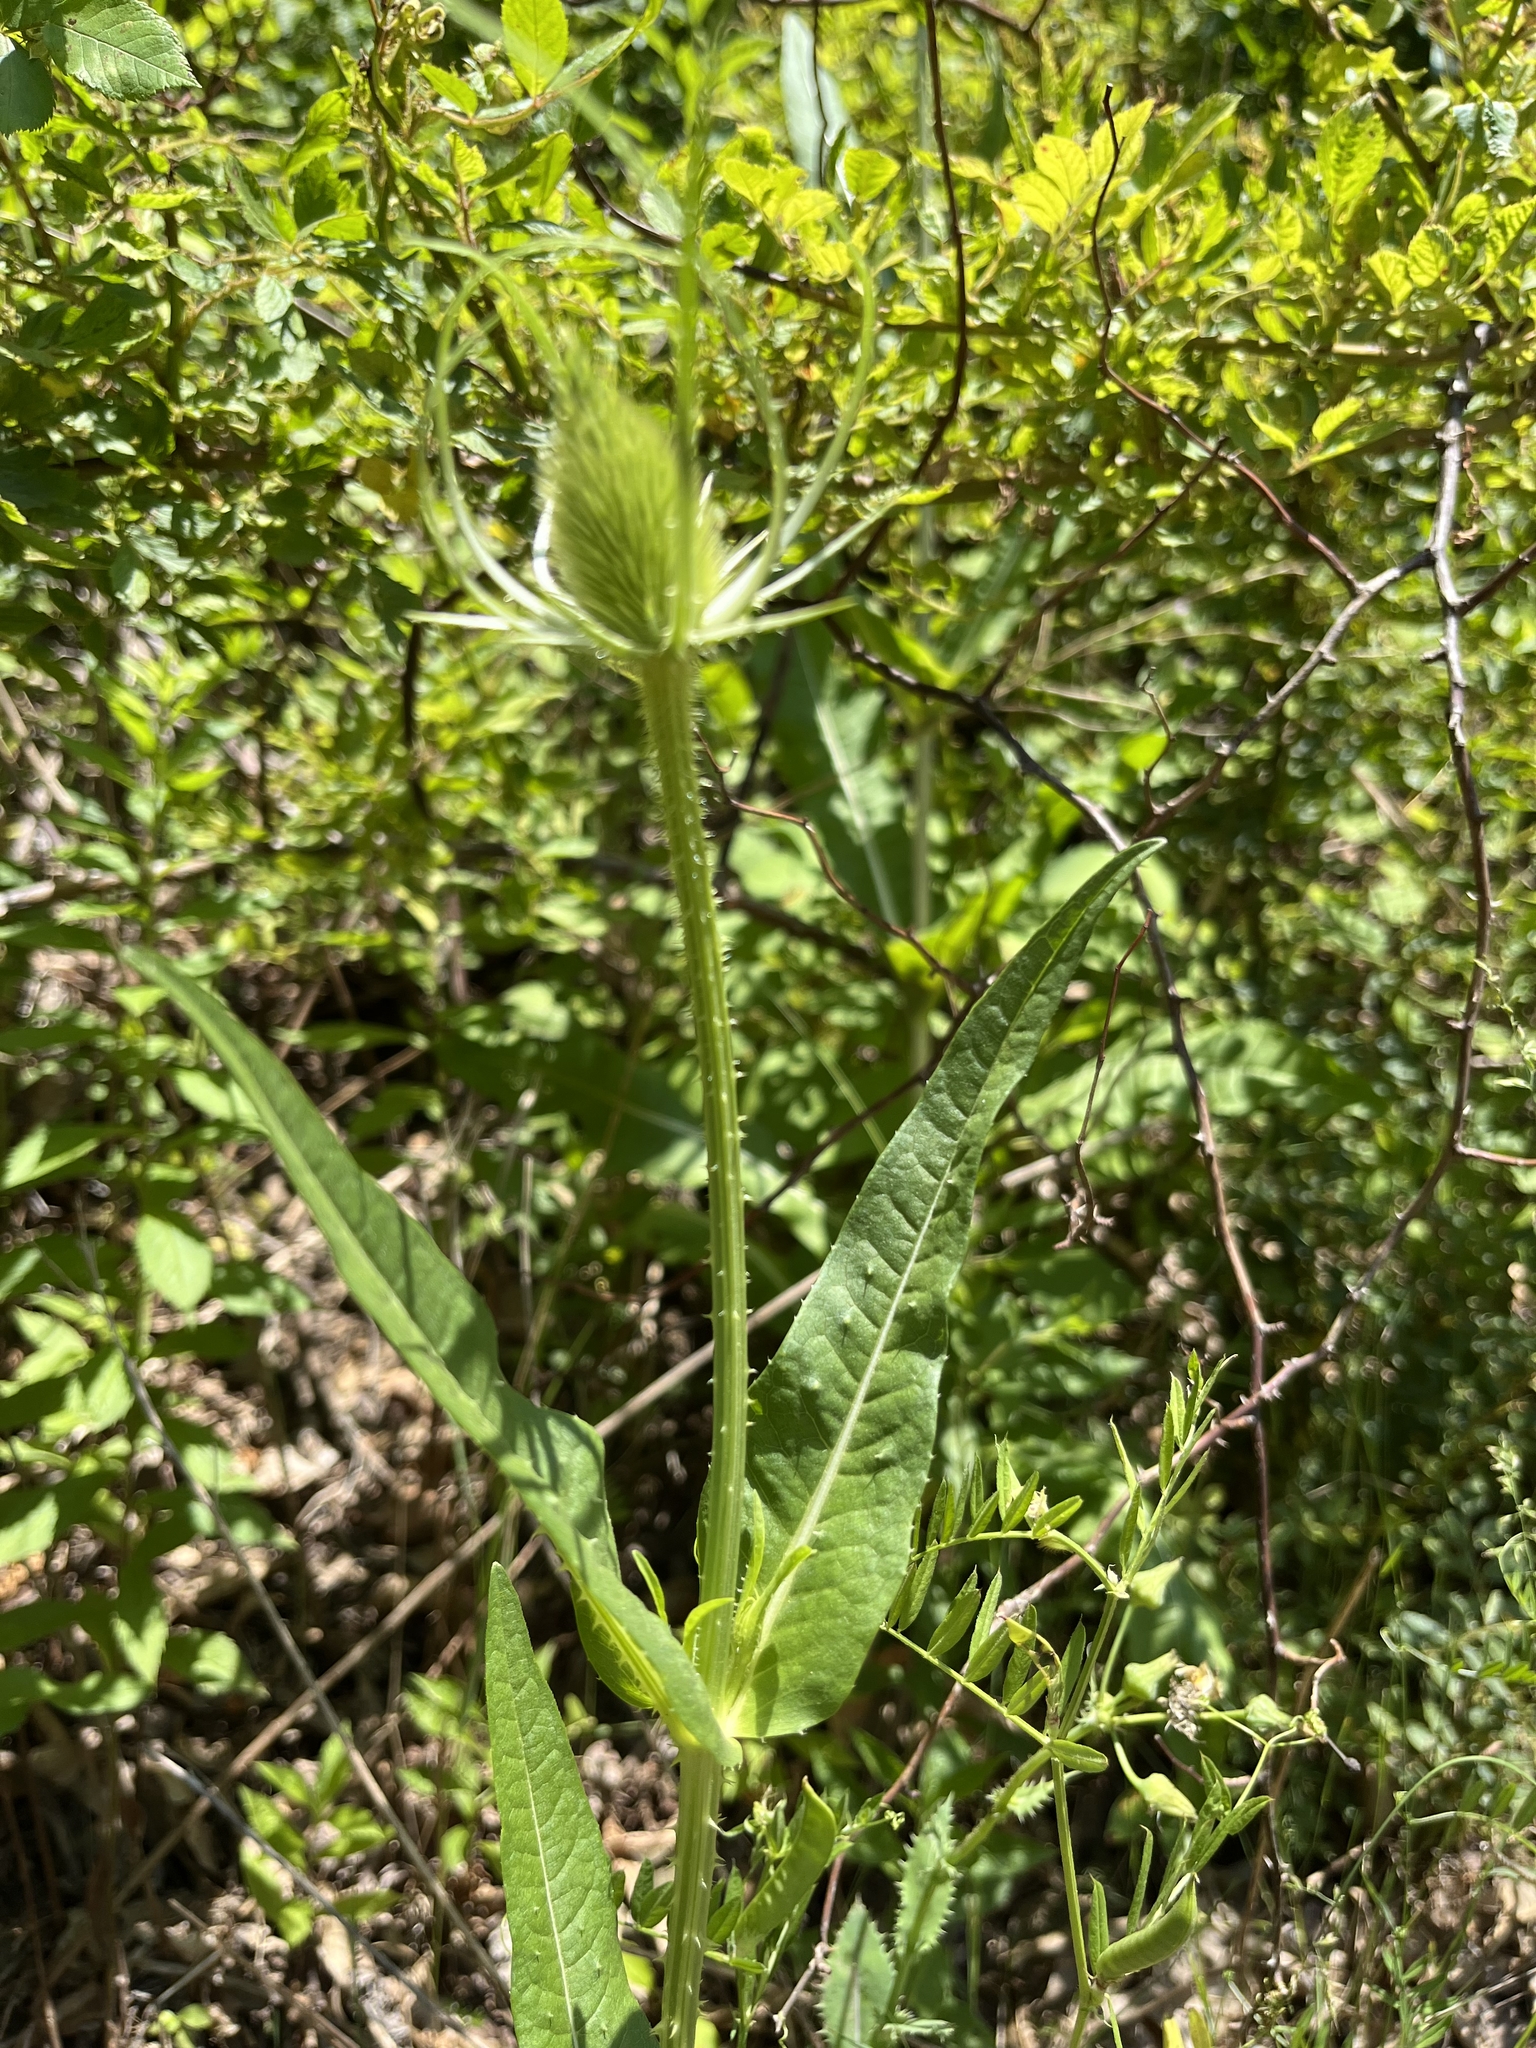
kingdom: Plantae
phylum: Tracheophyta
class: Magnoliopsida
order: Dipsacales
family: Caprifoliaceae
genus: Dipsacus
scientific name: Dipsacus fullonum
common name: Teasel
